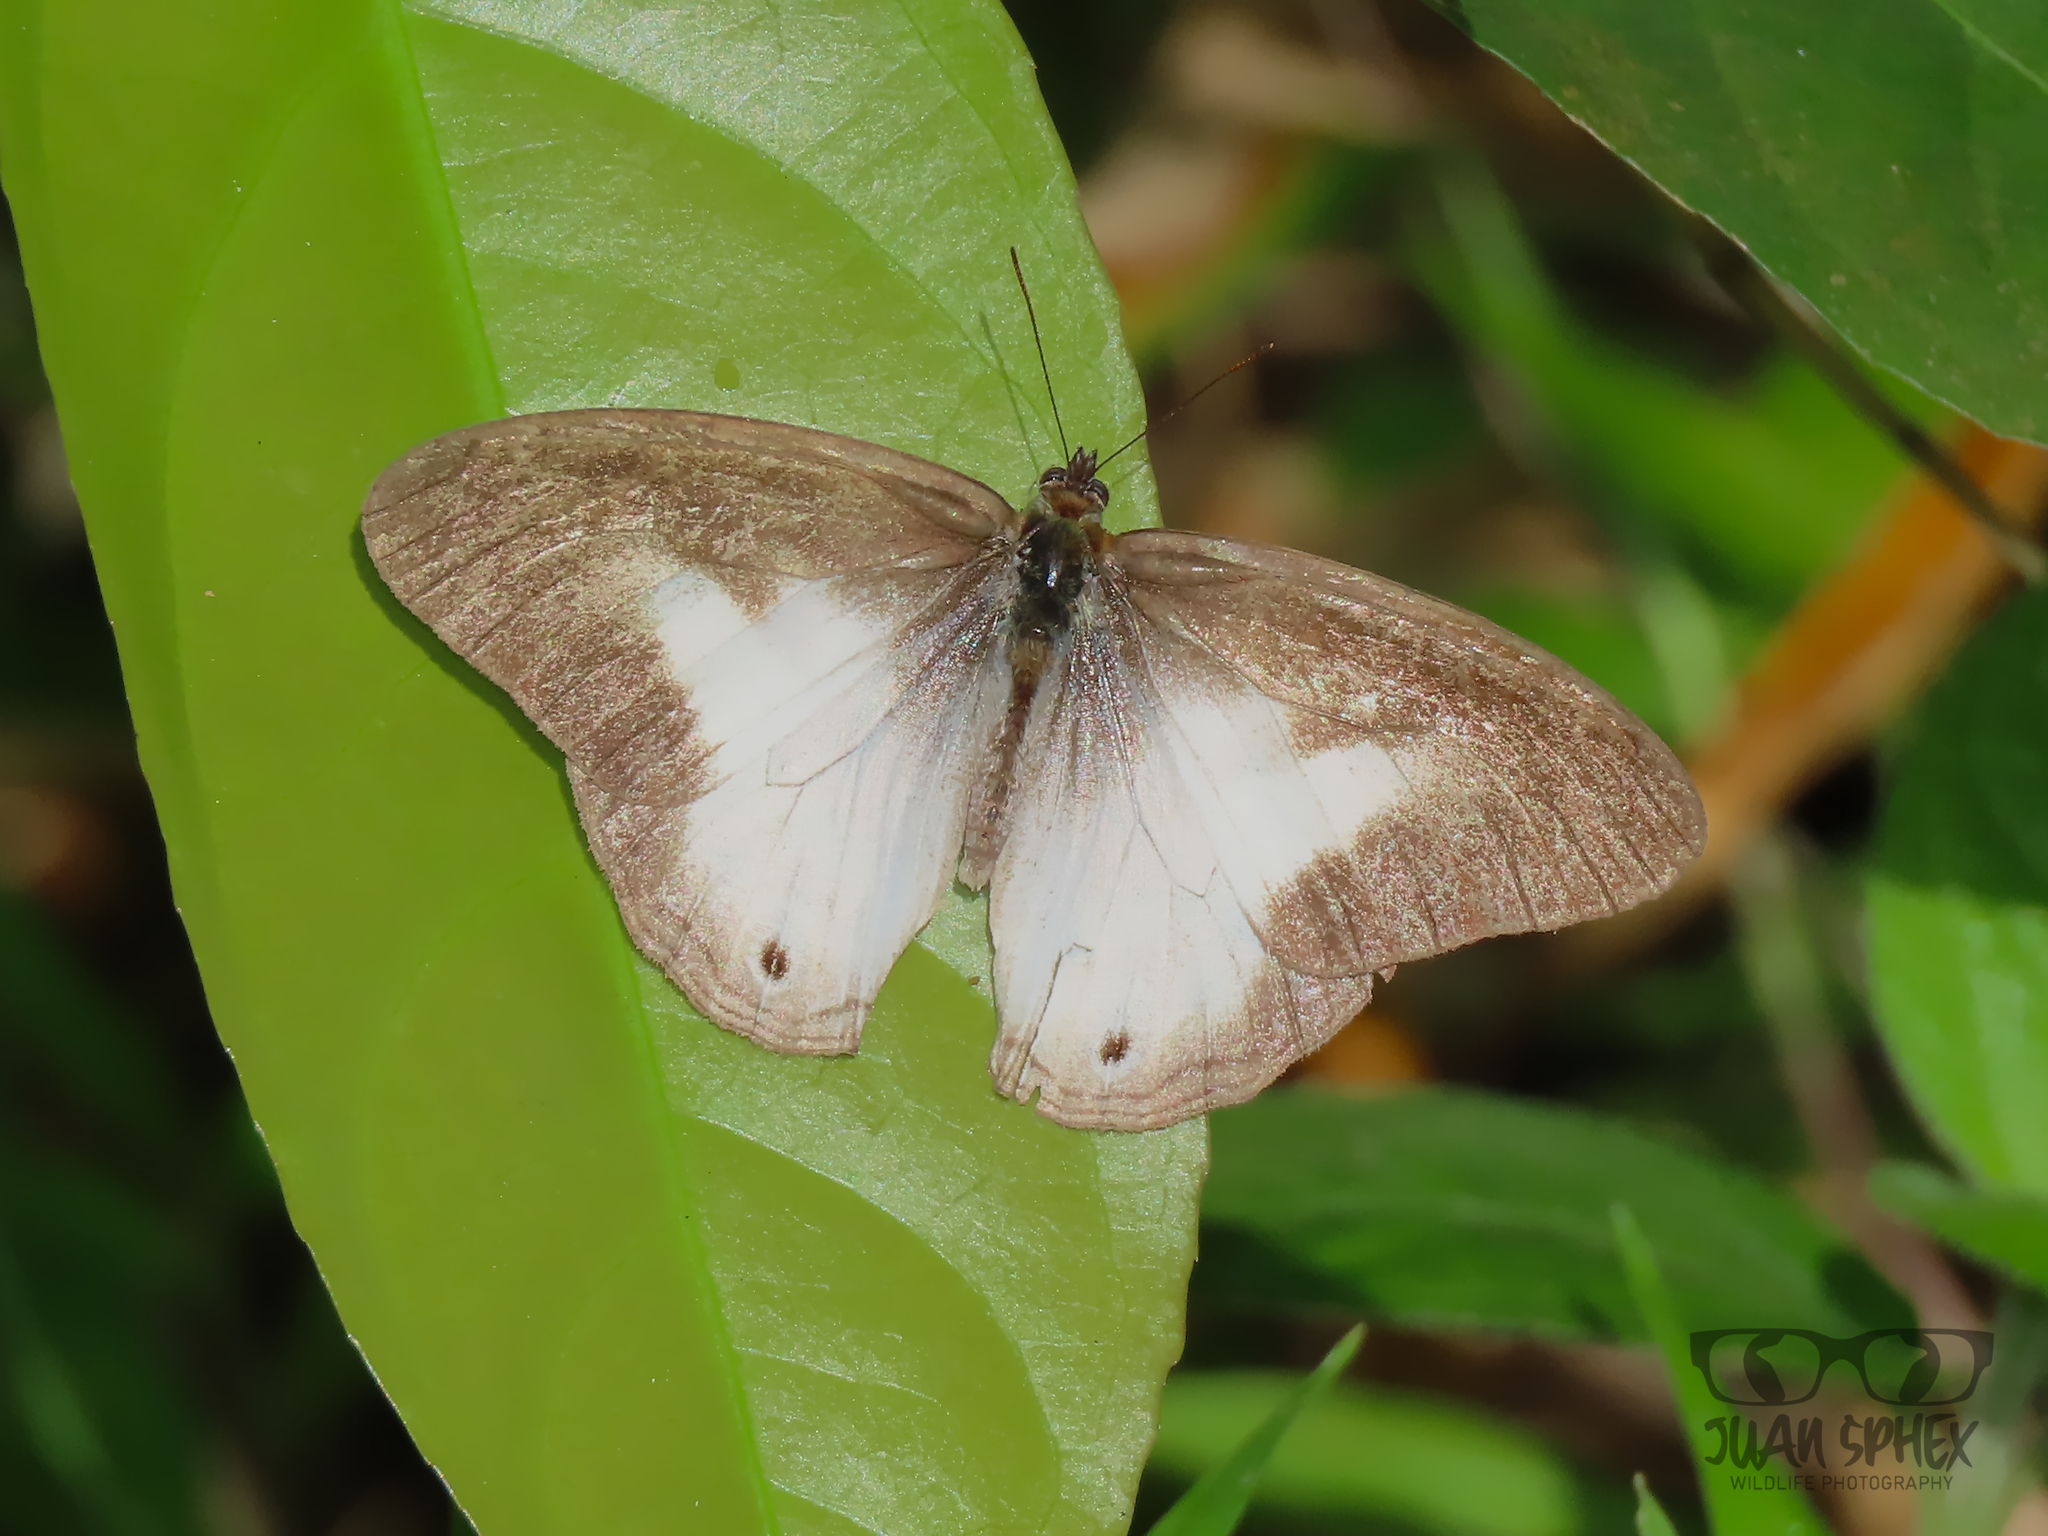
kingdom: Animalia
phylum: Arthropoda
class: Insecta
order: Lepidoptera
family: Nymphalidae
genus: Pareuptychia
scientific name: Pareuptychia metaleuca
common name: White-banded satyr
